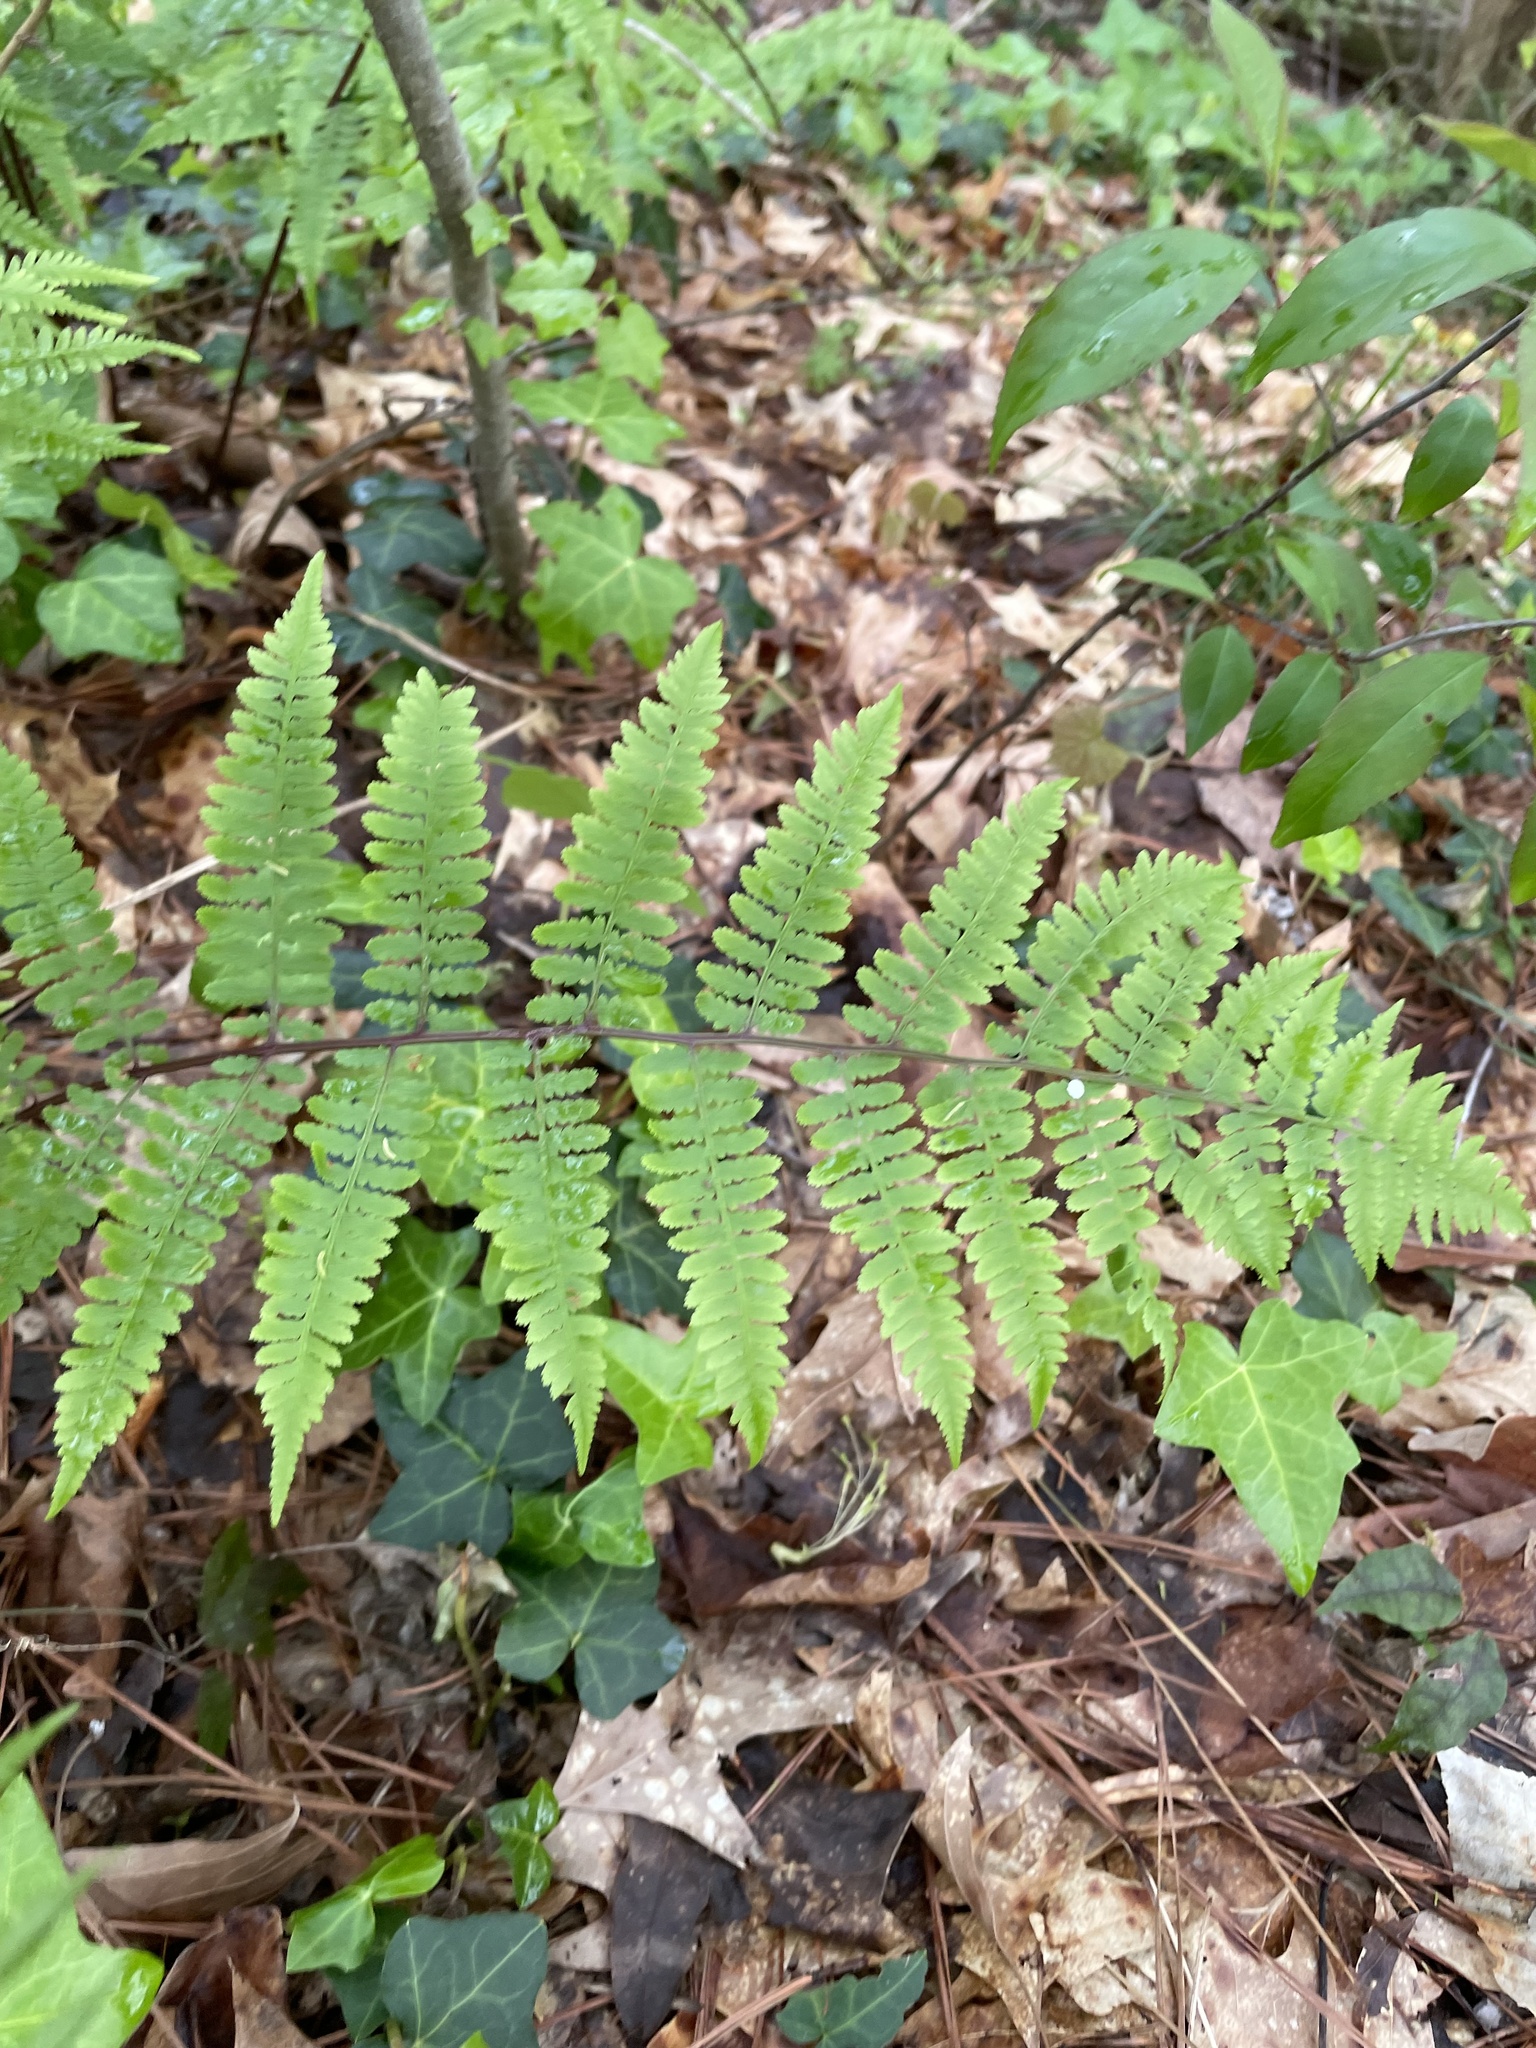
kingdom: Plantae
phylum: Tracheophyta
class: Polypodiopsida
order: Polypodiales
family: Athyriaceae
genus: Athyrium
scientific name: Athyrium asplenioides
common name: Southern lady fern
